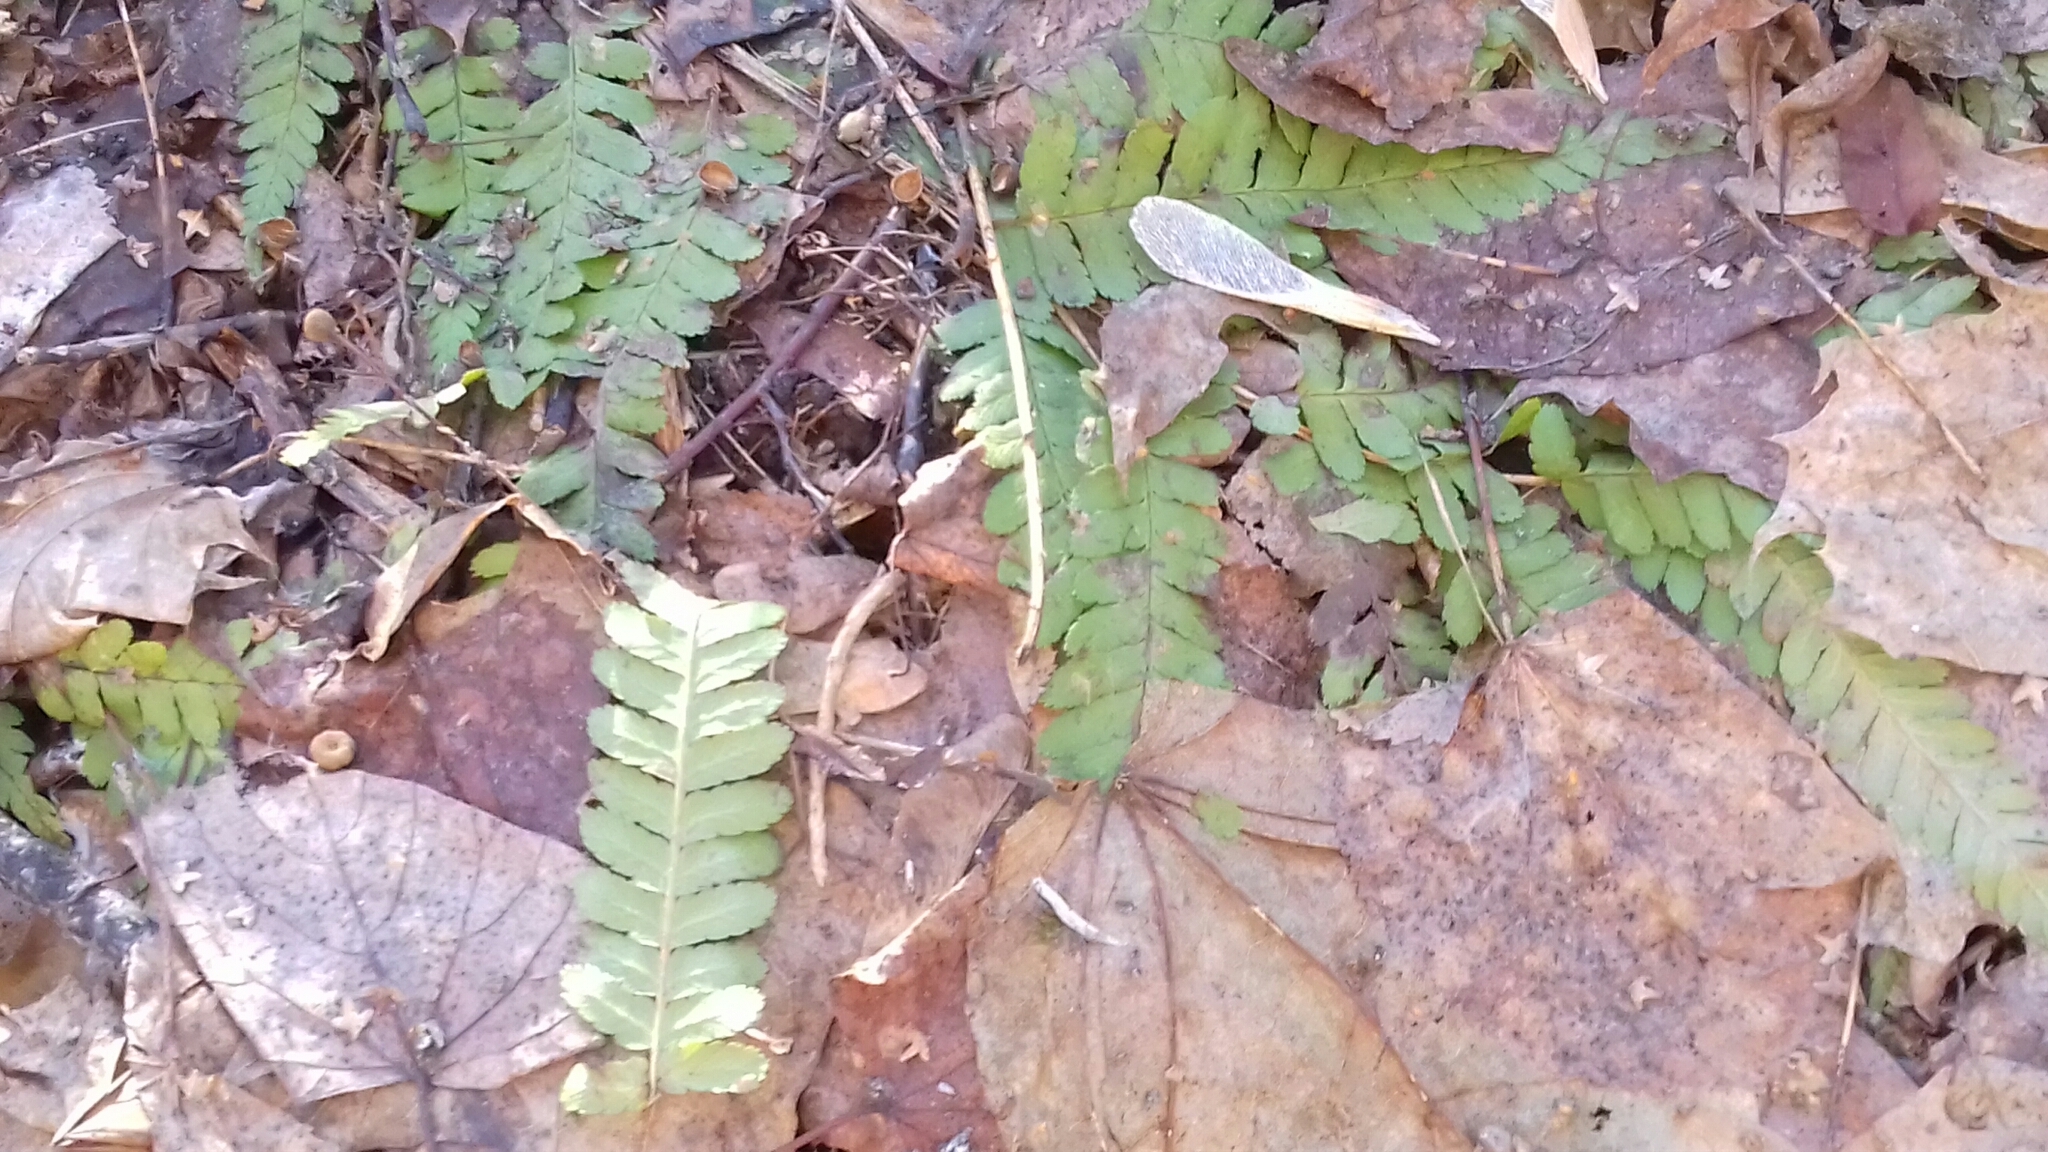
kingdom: Plantae
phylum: Tracheophyta
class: Polypodiopsida
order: Polypodiales
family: Dryopteridaceae
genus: Dryopteris
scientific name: Dryopteris filix-mas
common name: Male fern
